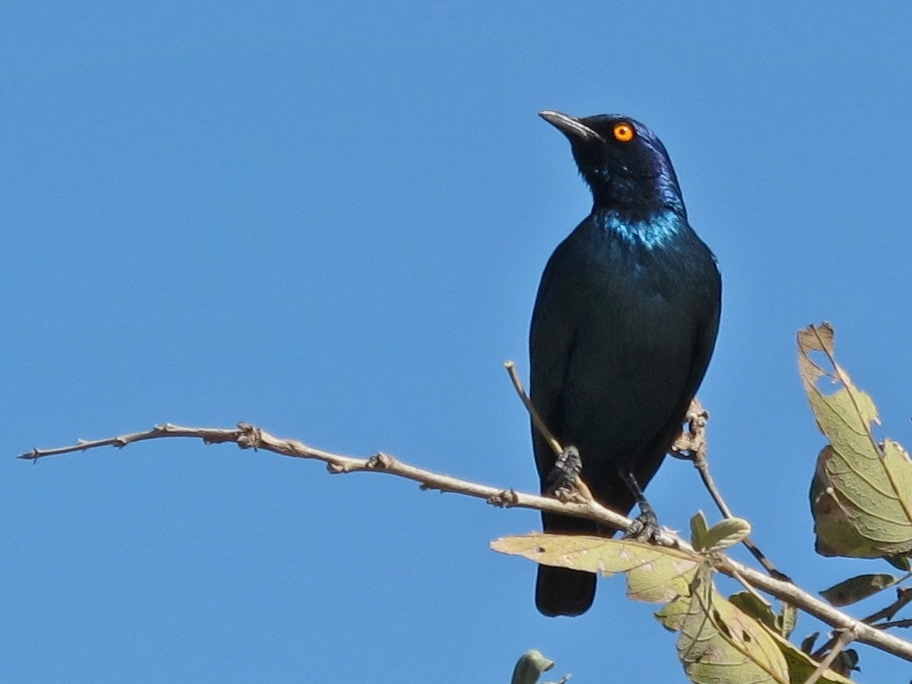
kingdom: Animalia
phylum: Chordata
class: Aves
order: Passeriformes
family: Sturnidae
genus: Lamprotornis
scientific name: Lamprotornis nitens
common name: Cape starling
